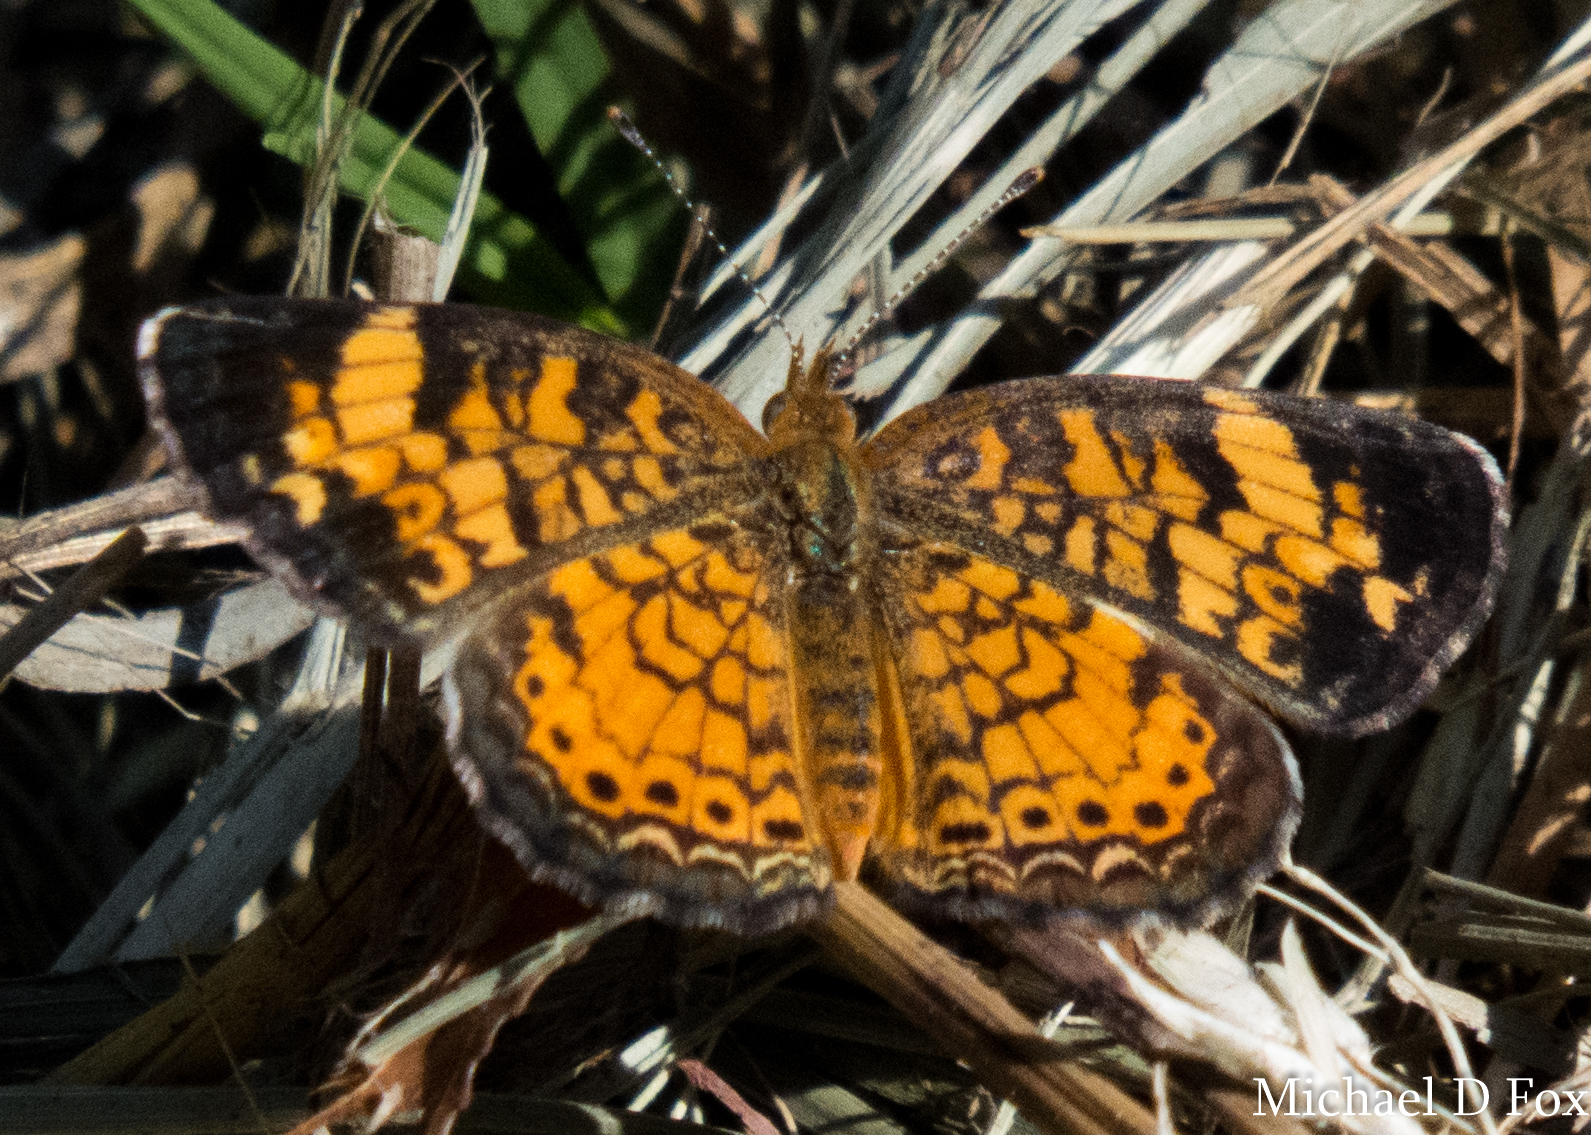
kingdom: Animalia
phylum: Arthropoda
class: Insecta
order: Lepidoptera
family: Nymphalidae
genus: Phyciodes
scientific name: Phyciodes tharos
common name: Pearl crescent
